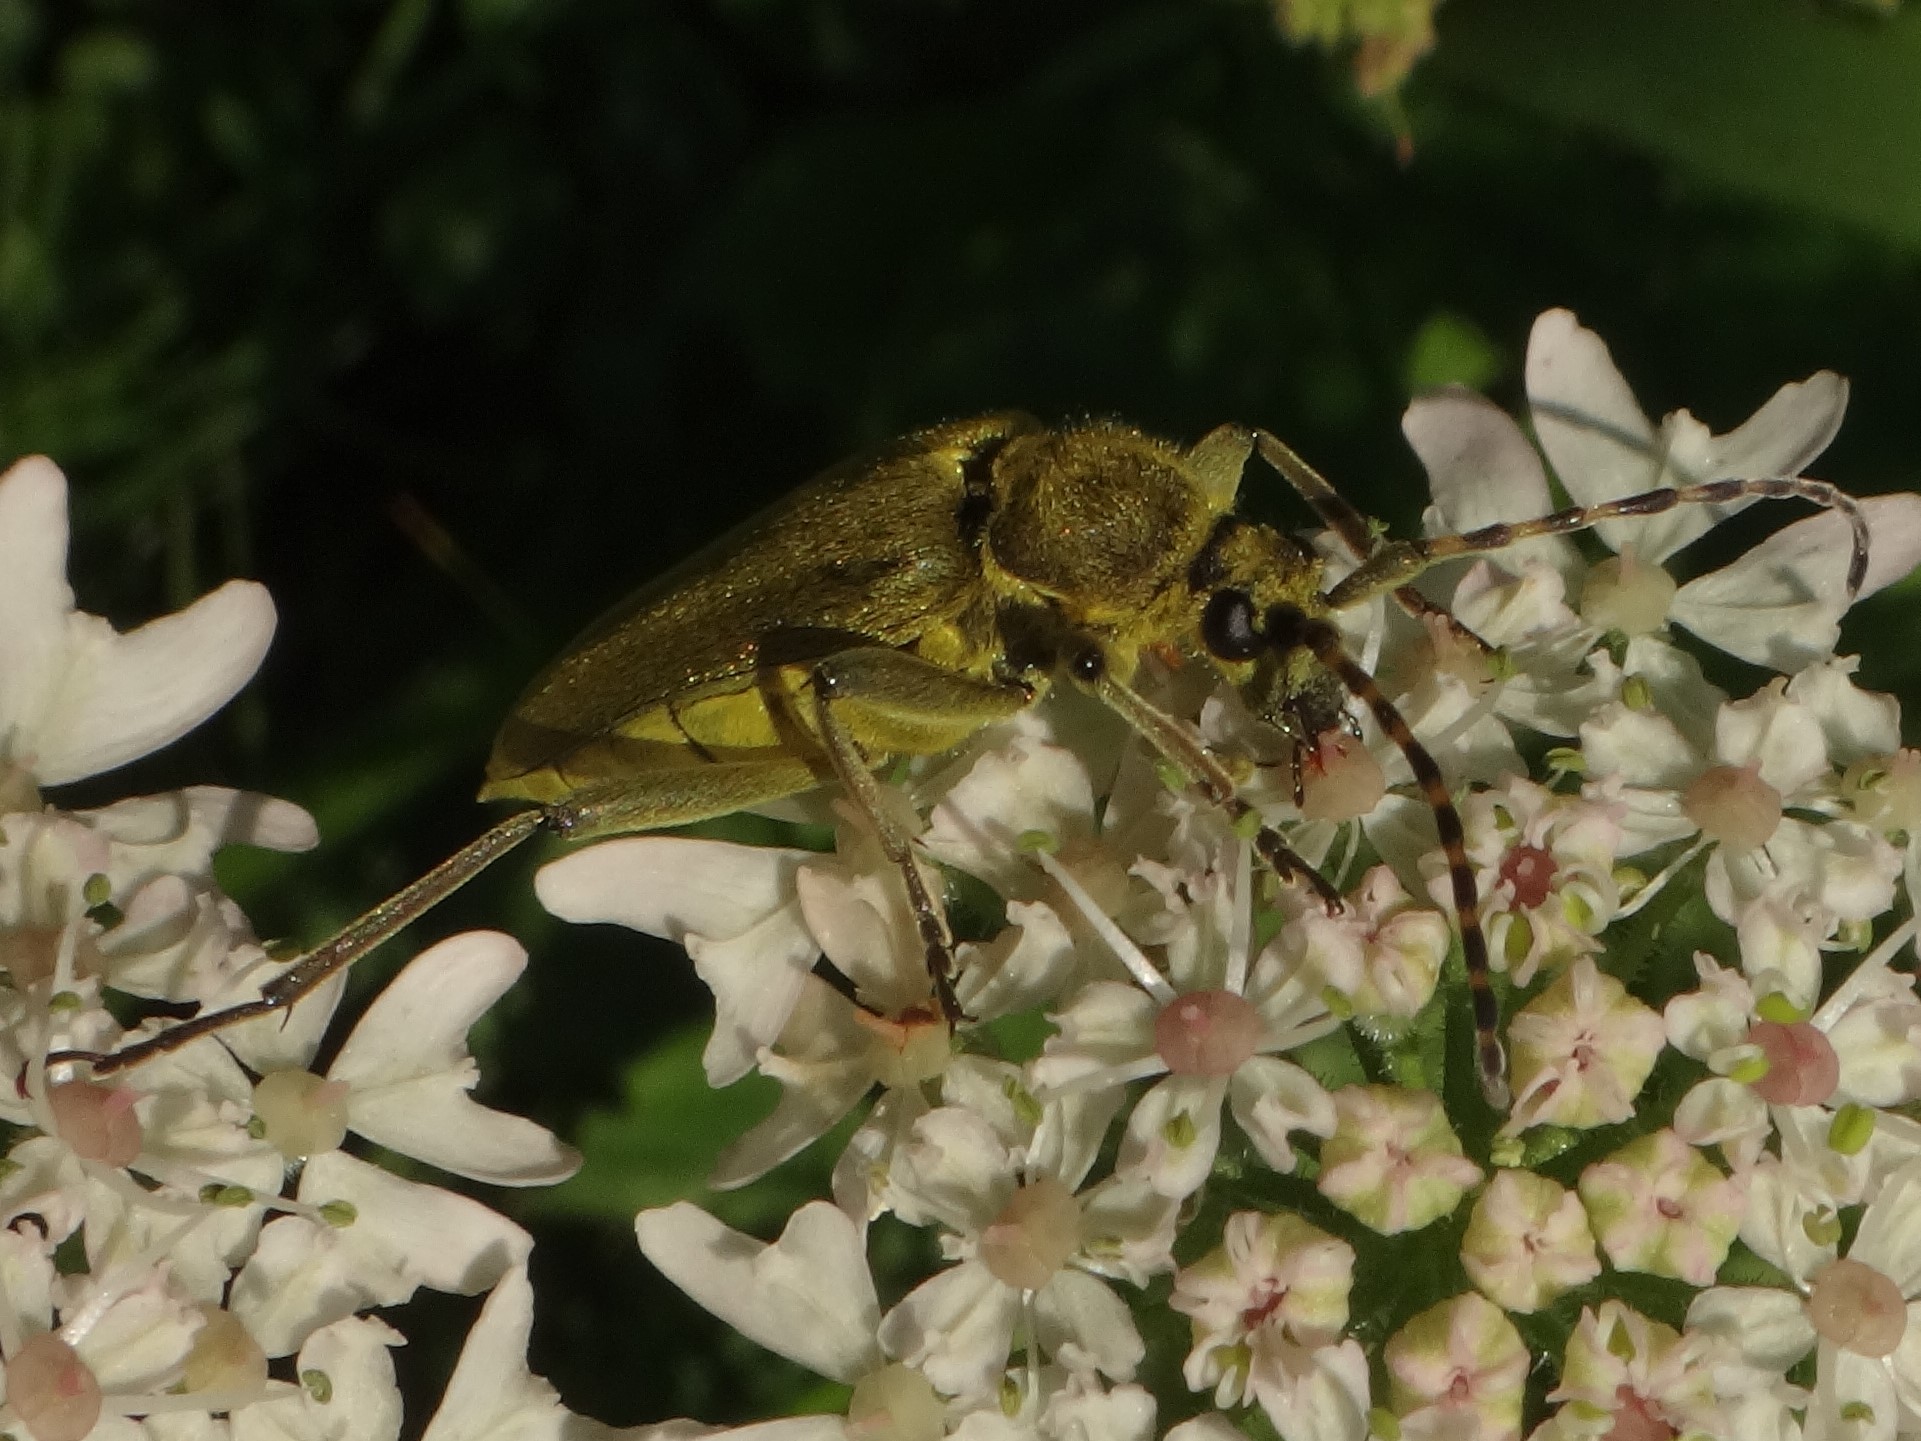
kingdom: Animalia
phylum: Arthropoda
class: Insecta
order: Coleoptera
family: Cerambycidae
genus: Lepturobosca
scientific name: Lepturobosca virens
